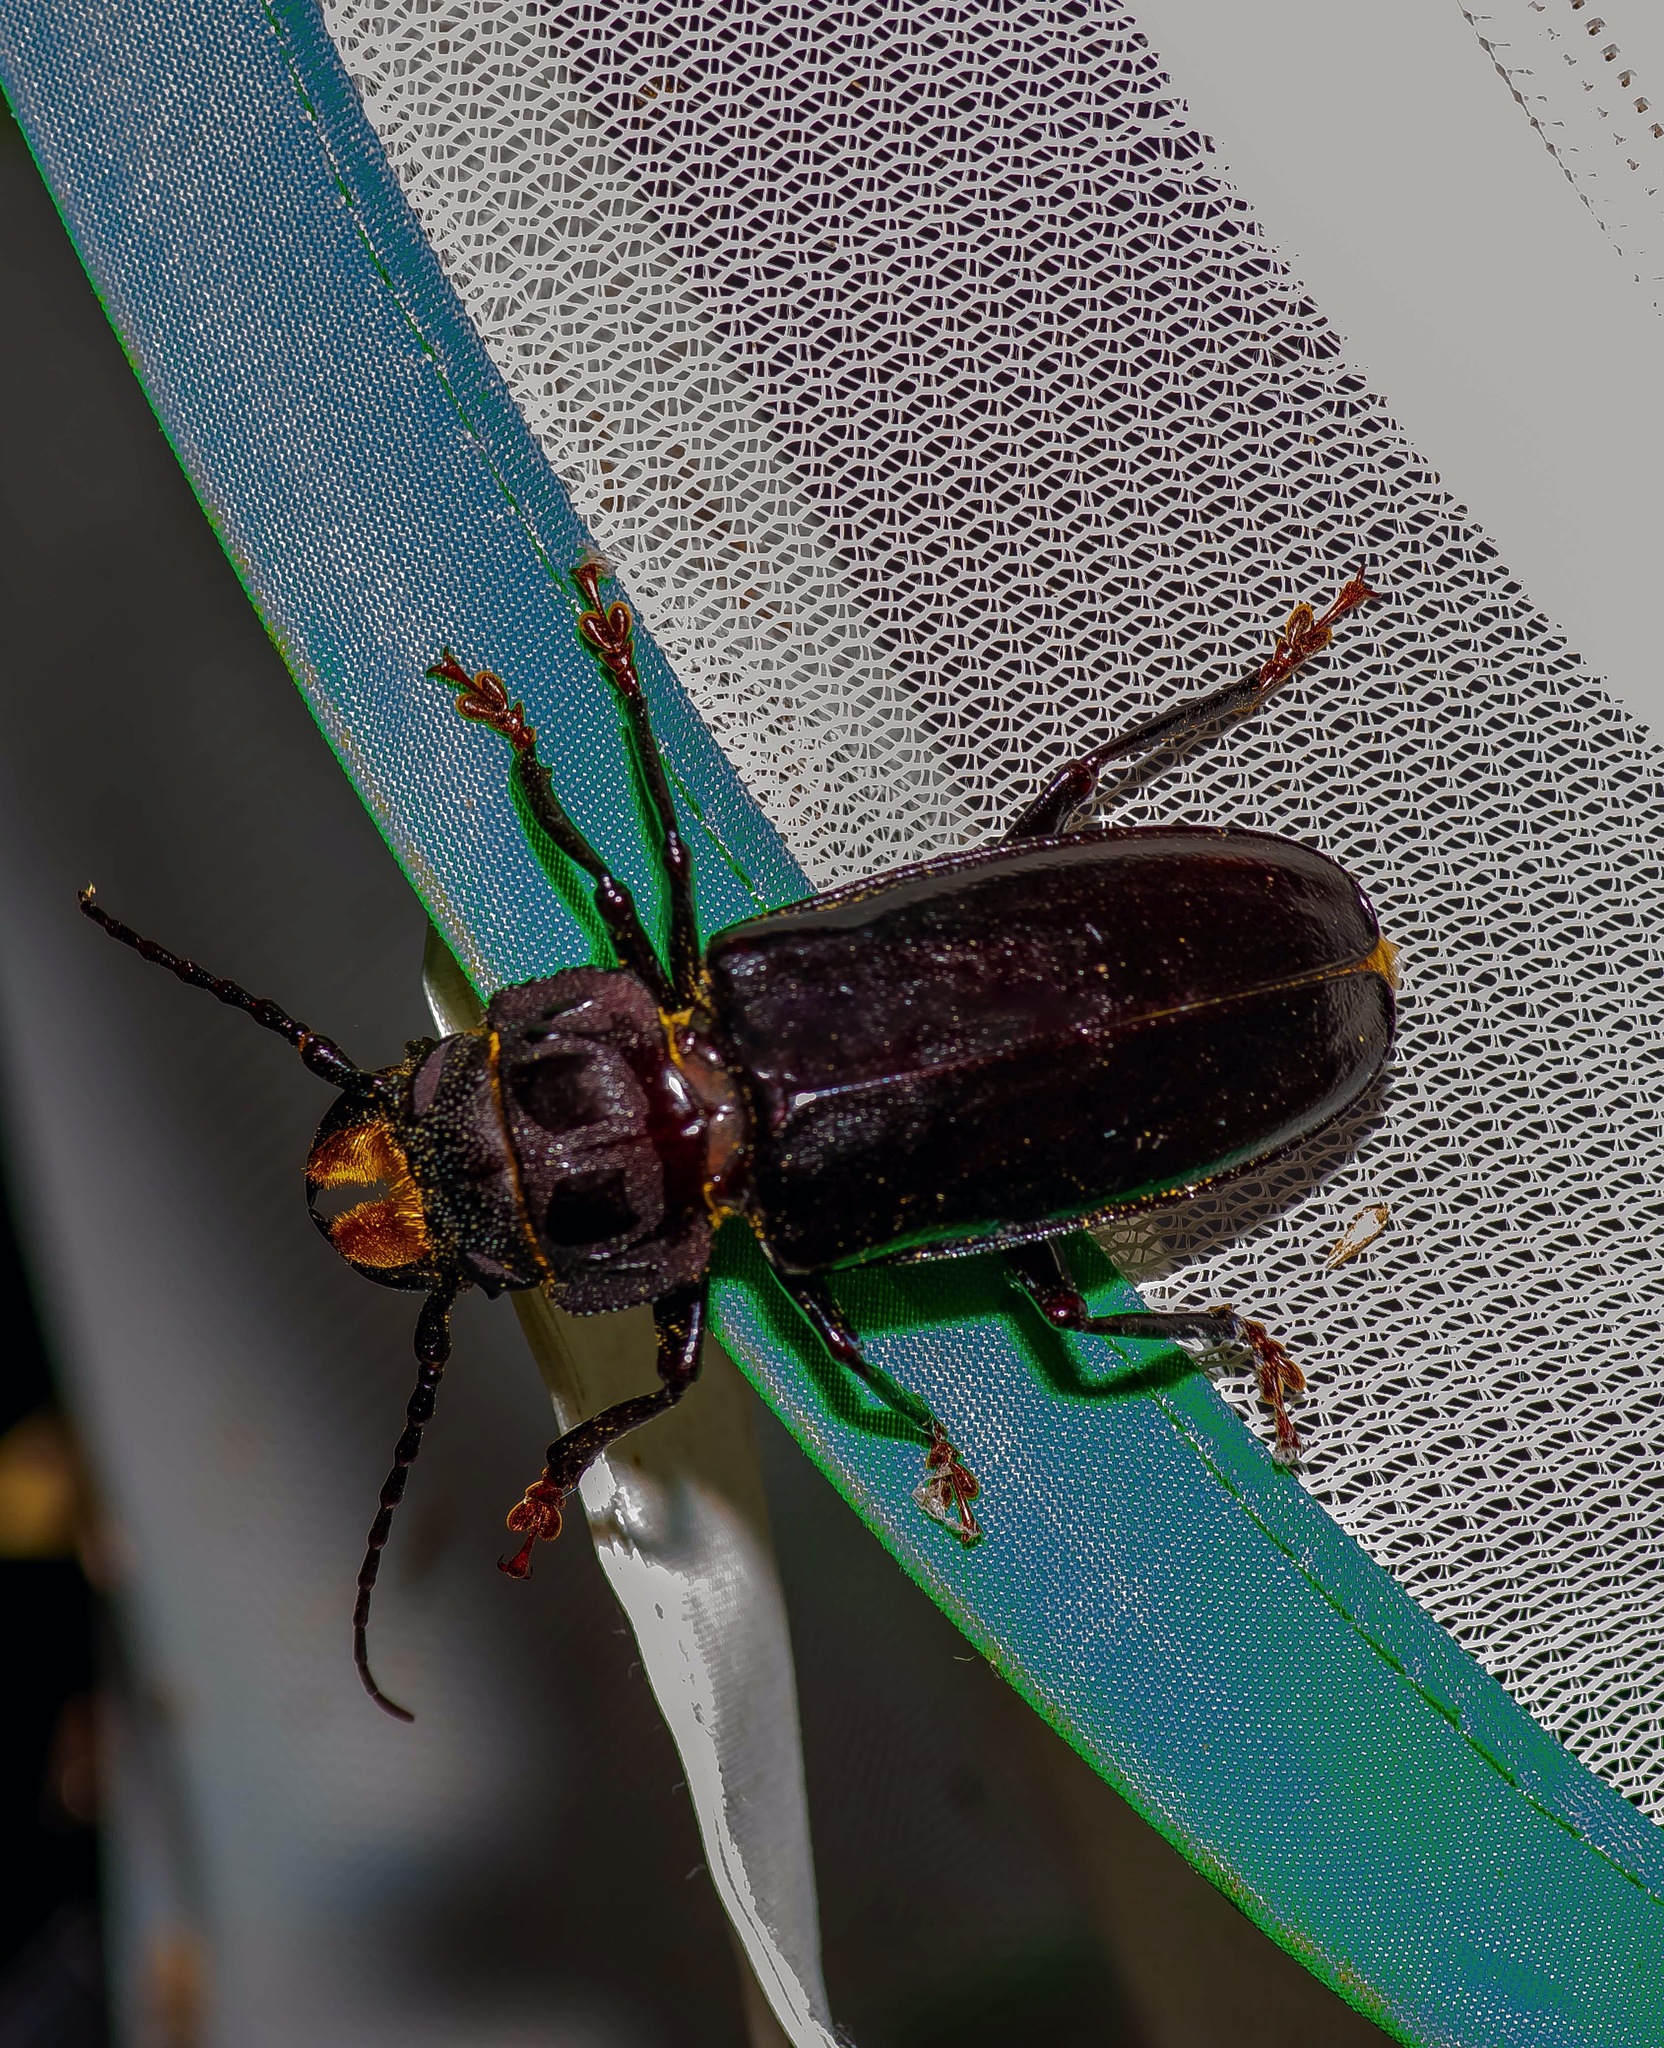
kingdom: Animalia
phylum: Arthropoda
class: Insecta
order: Coleoptera
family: Cerambycidae
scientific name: Cerambycidae
